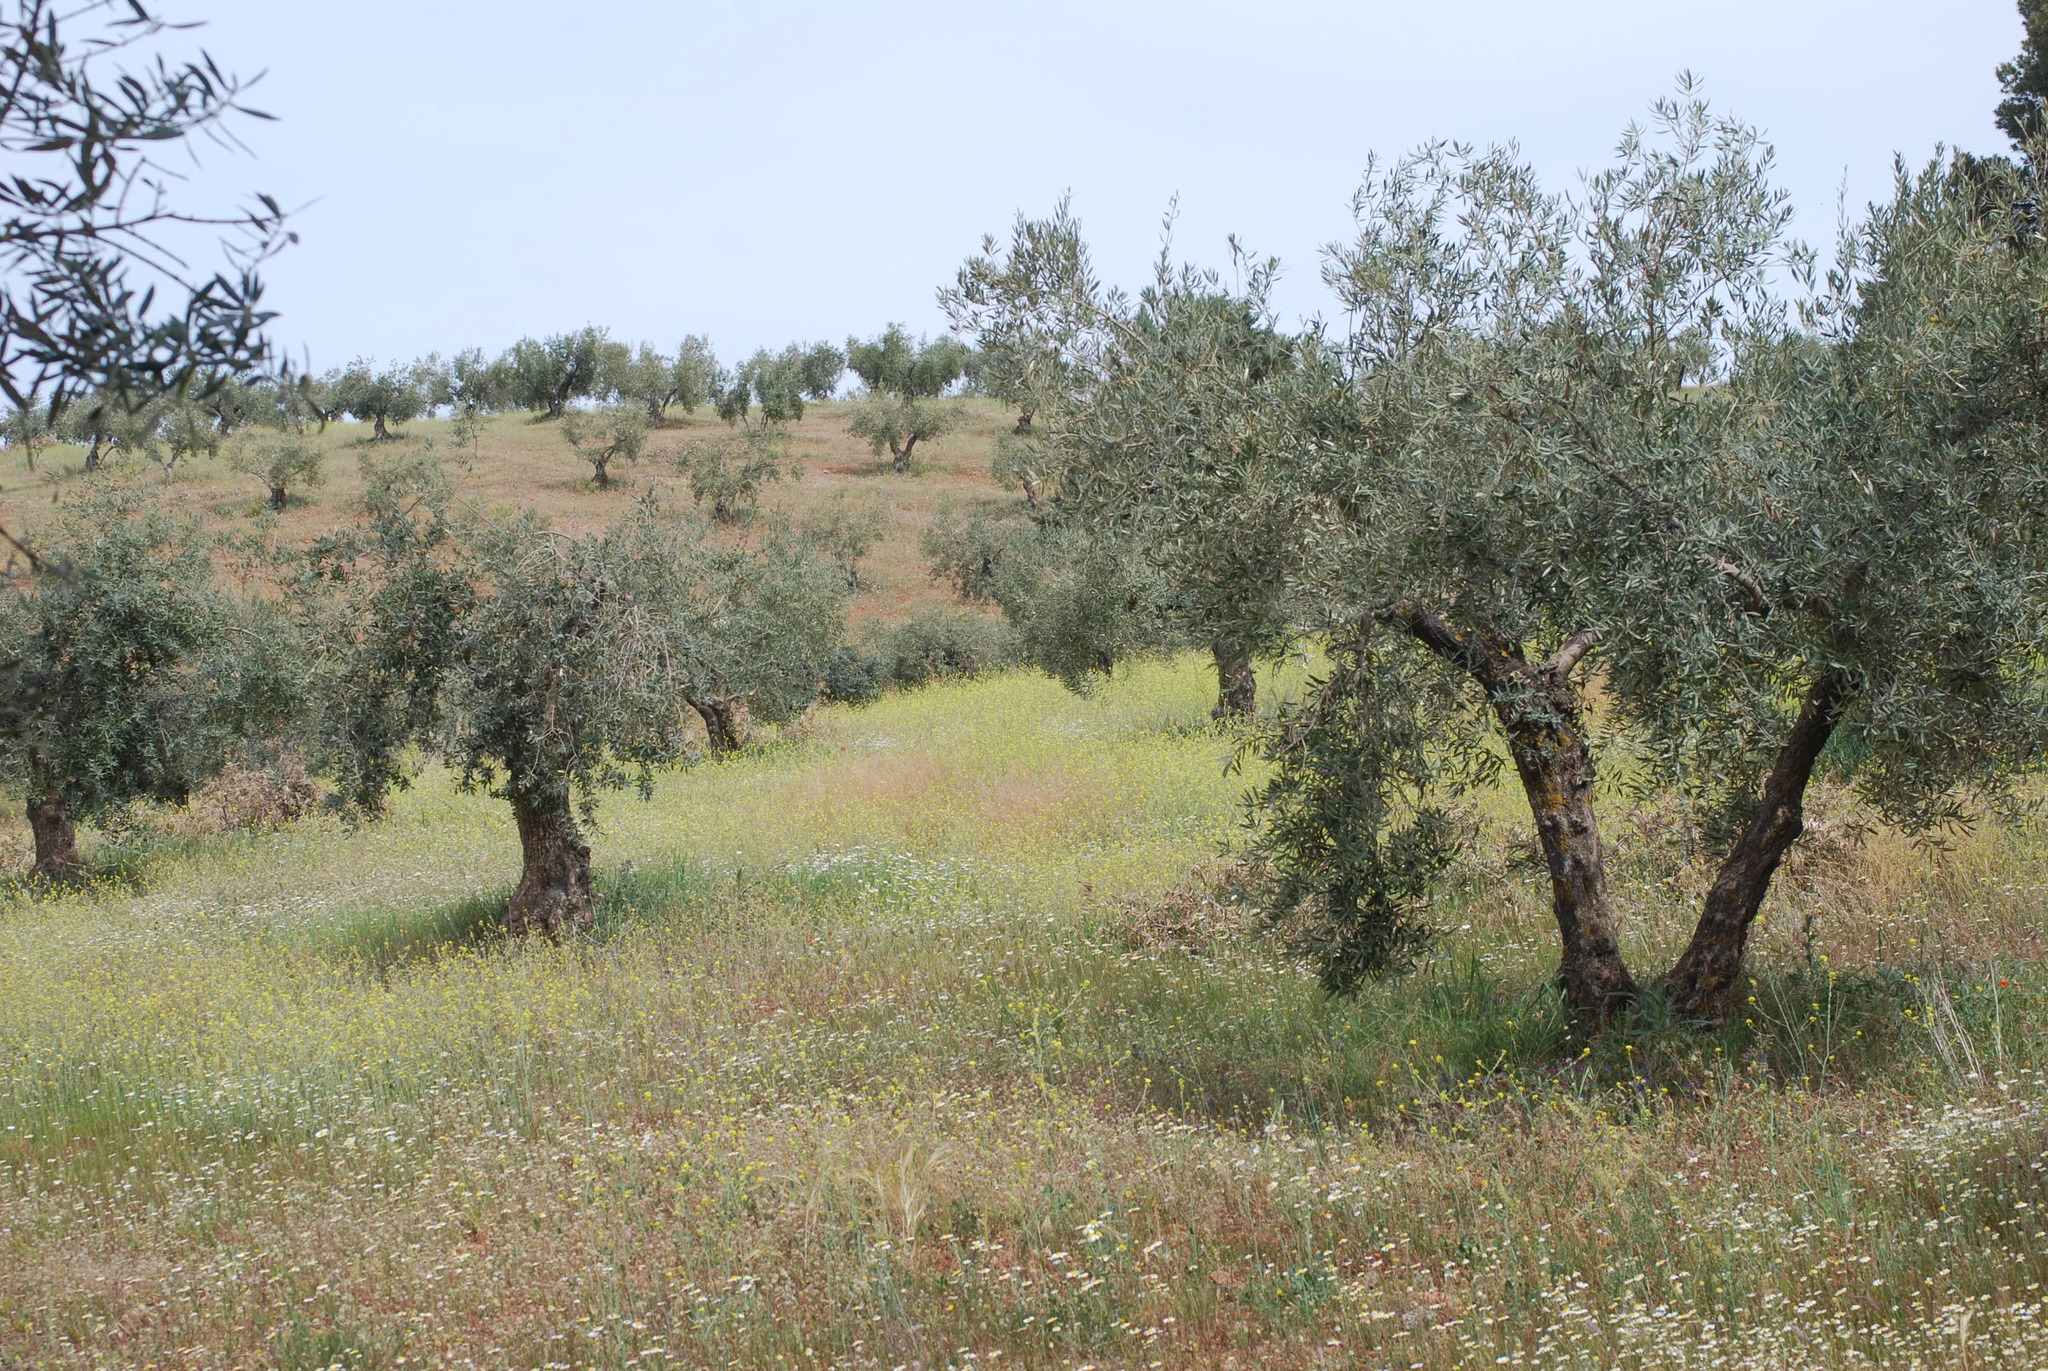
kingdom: Plantae
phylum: Tracheophyta
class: Magnoliopsida
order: Lamiales
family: Lamiaceae
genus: Phlomis
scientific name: Phlomis lychnitis
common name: Lampwickplant
